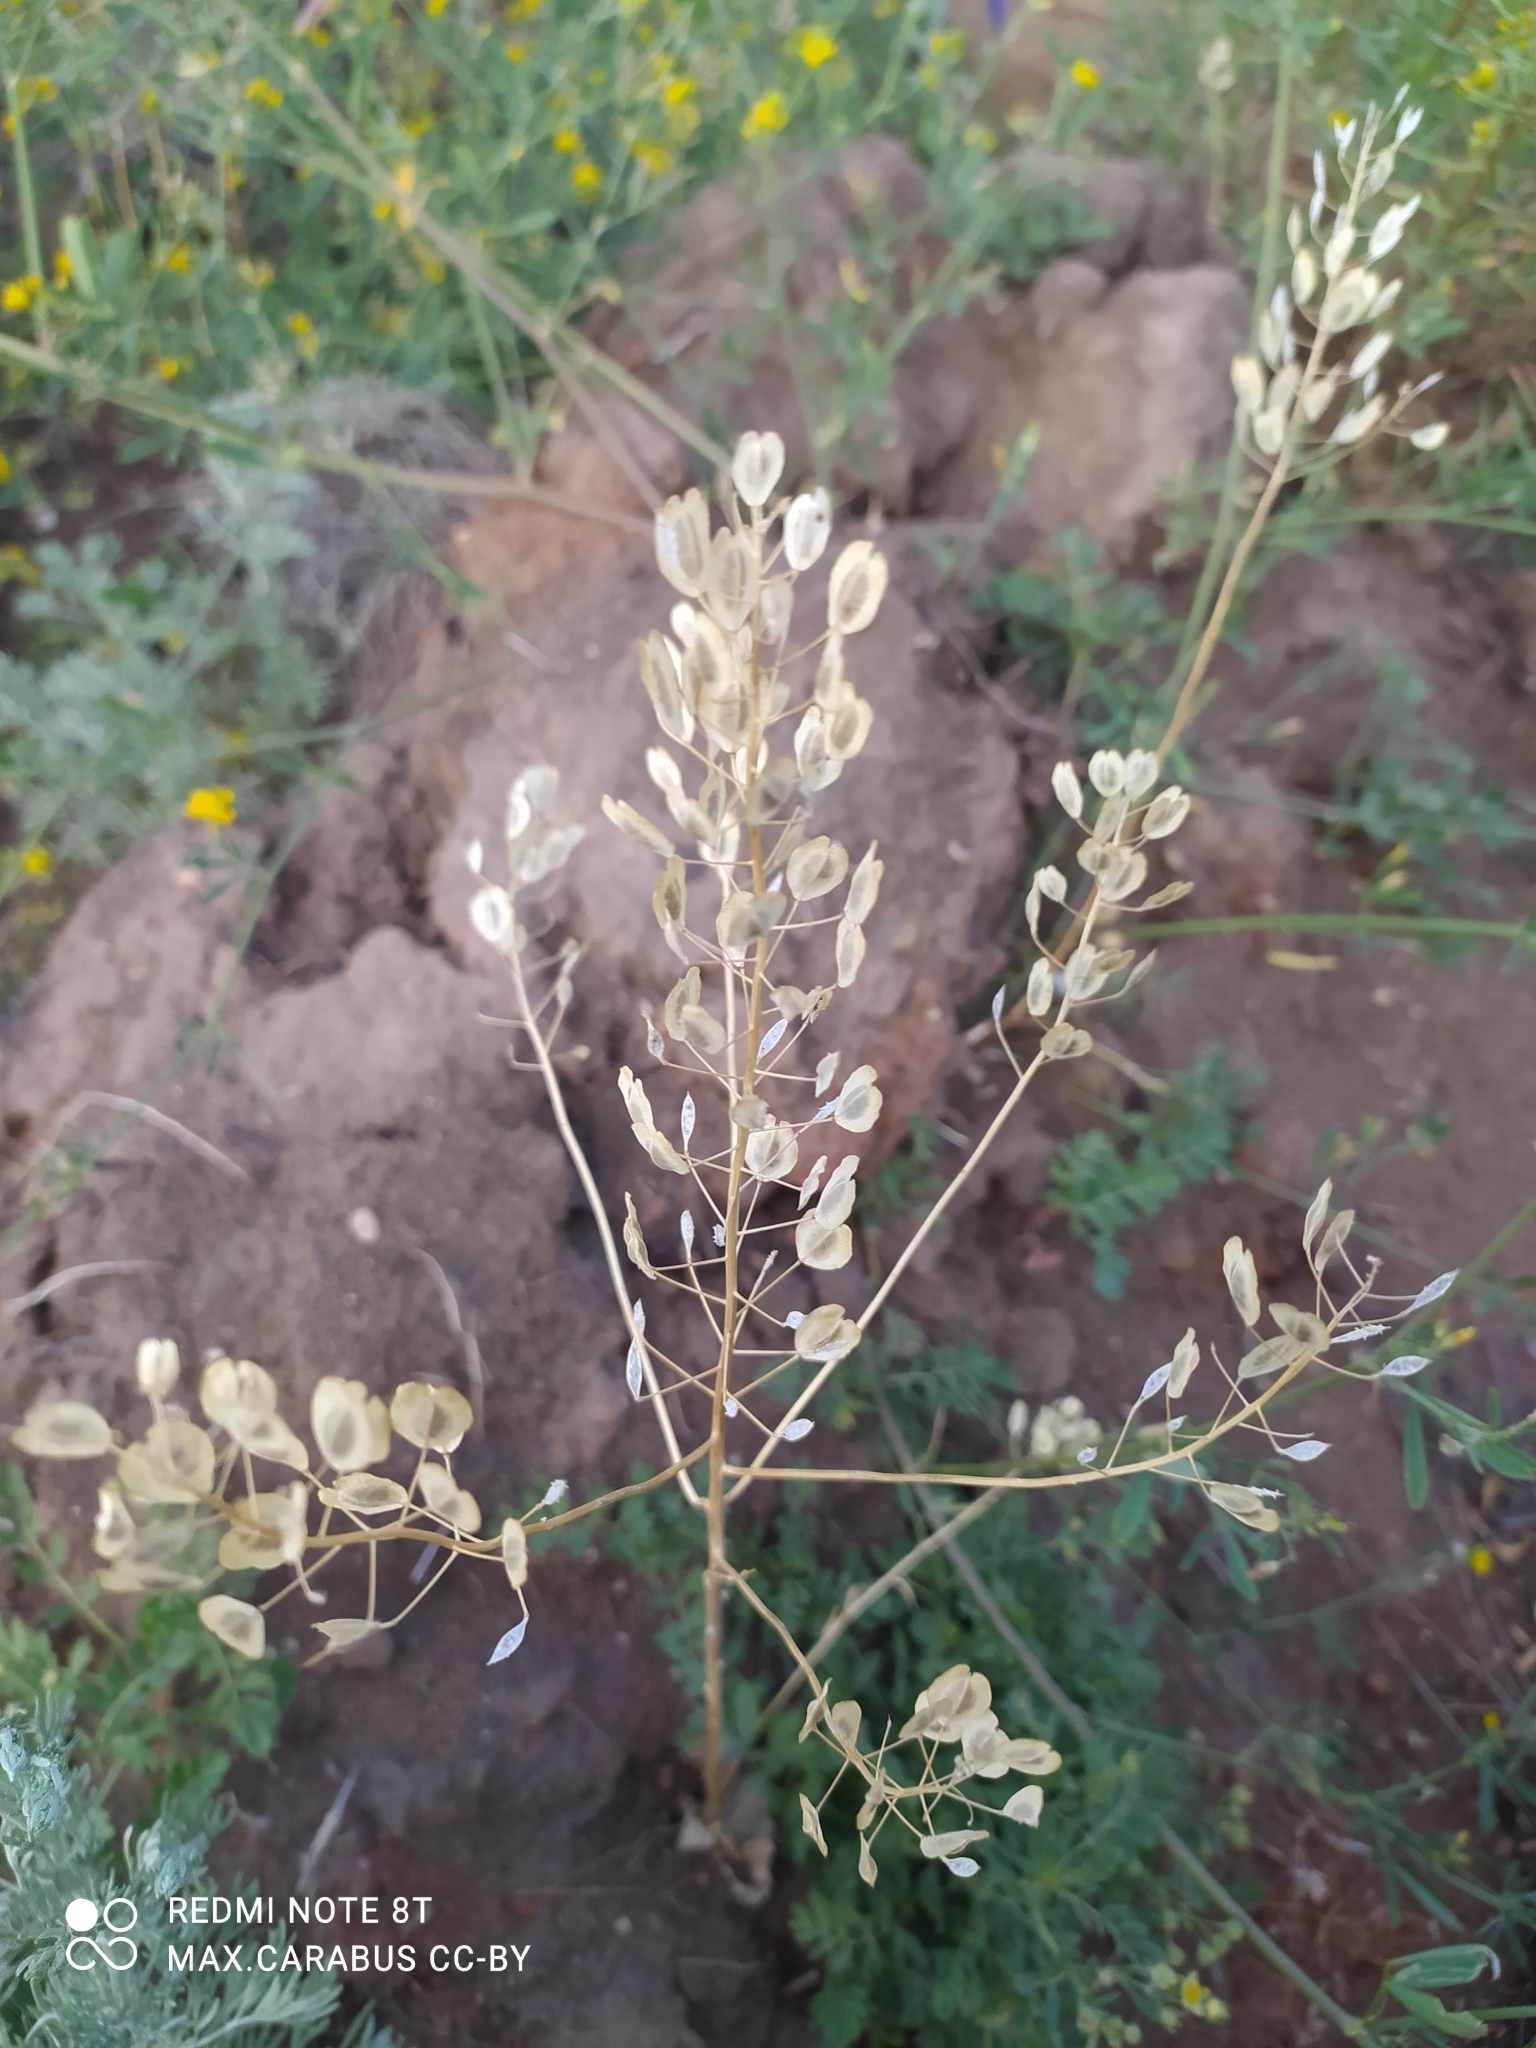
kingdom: Plantae
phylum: Tracheophyta
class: Magnoliopsida
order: Brassicales
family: Brassicaceae
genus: Thlaspi
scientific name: Thlaspi arvense
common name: Field pennycress
